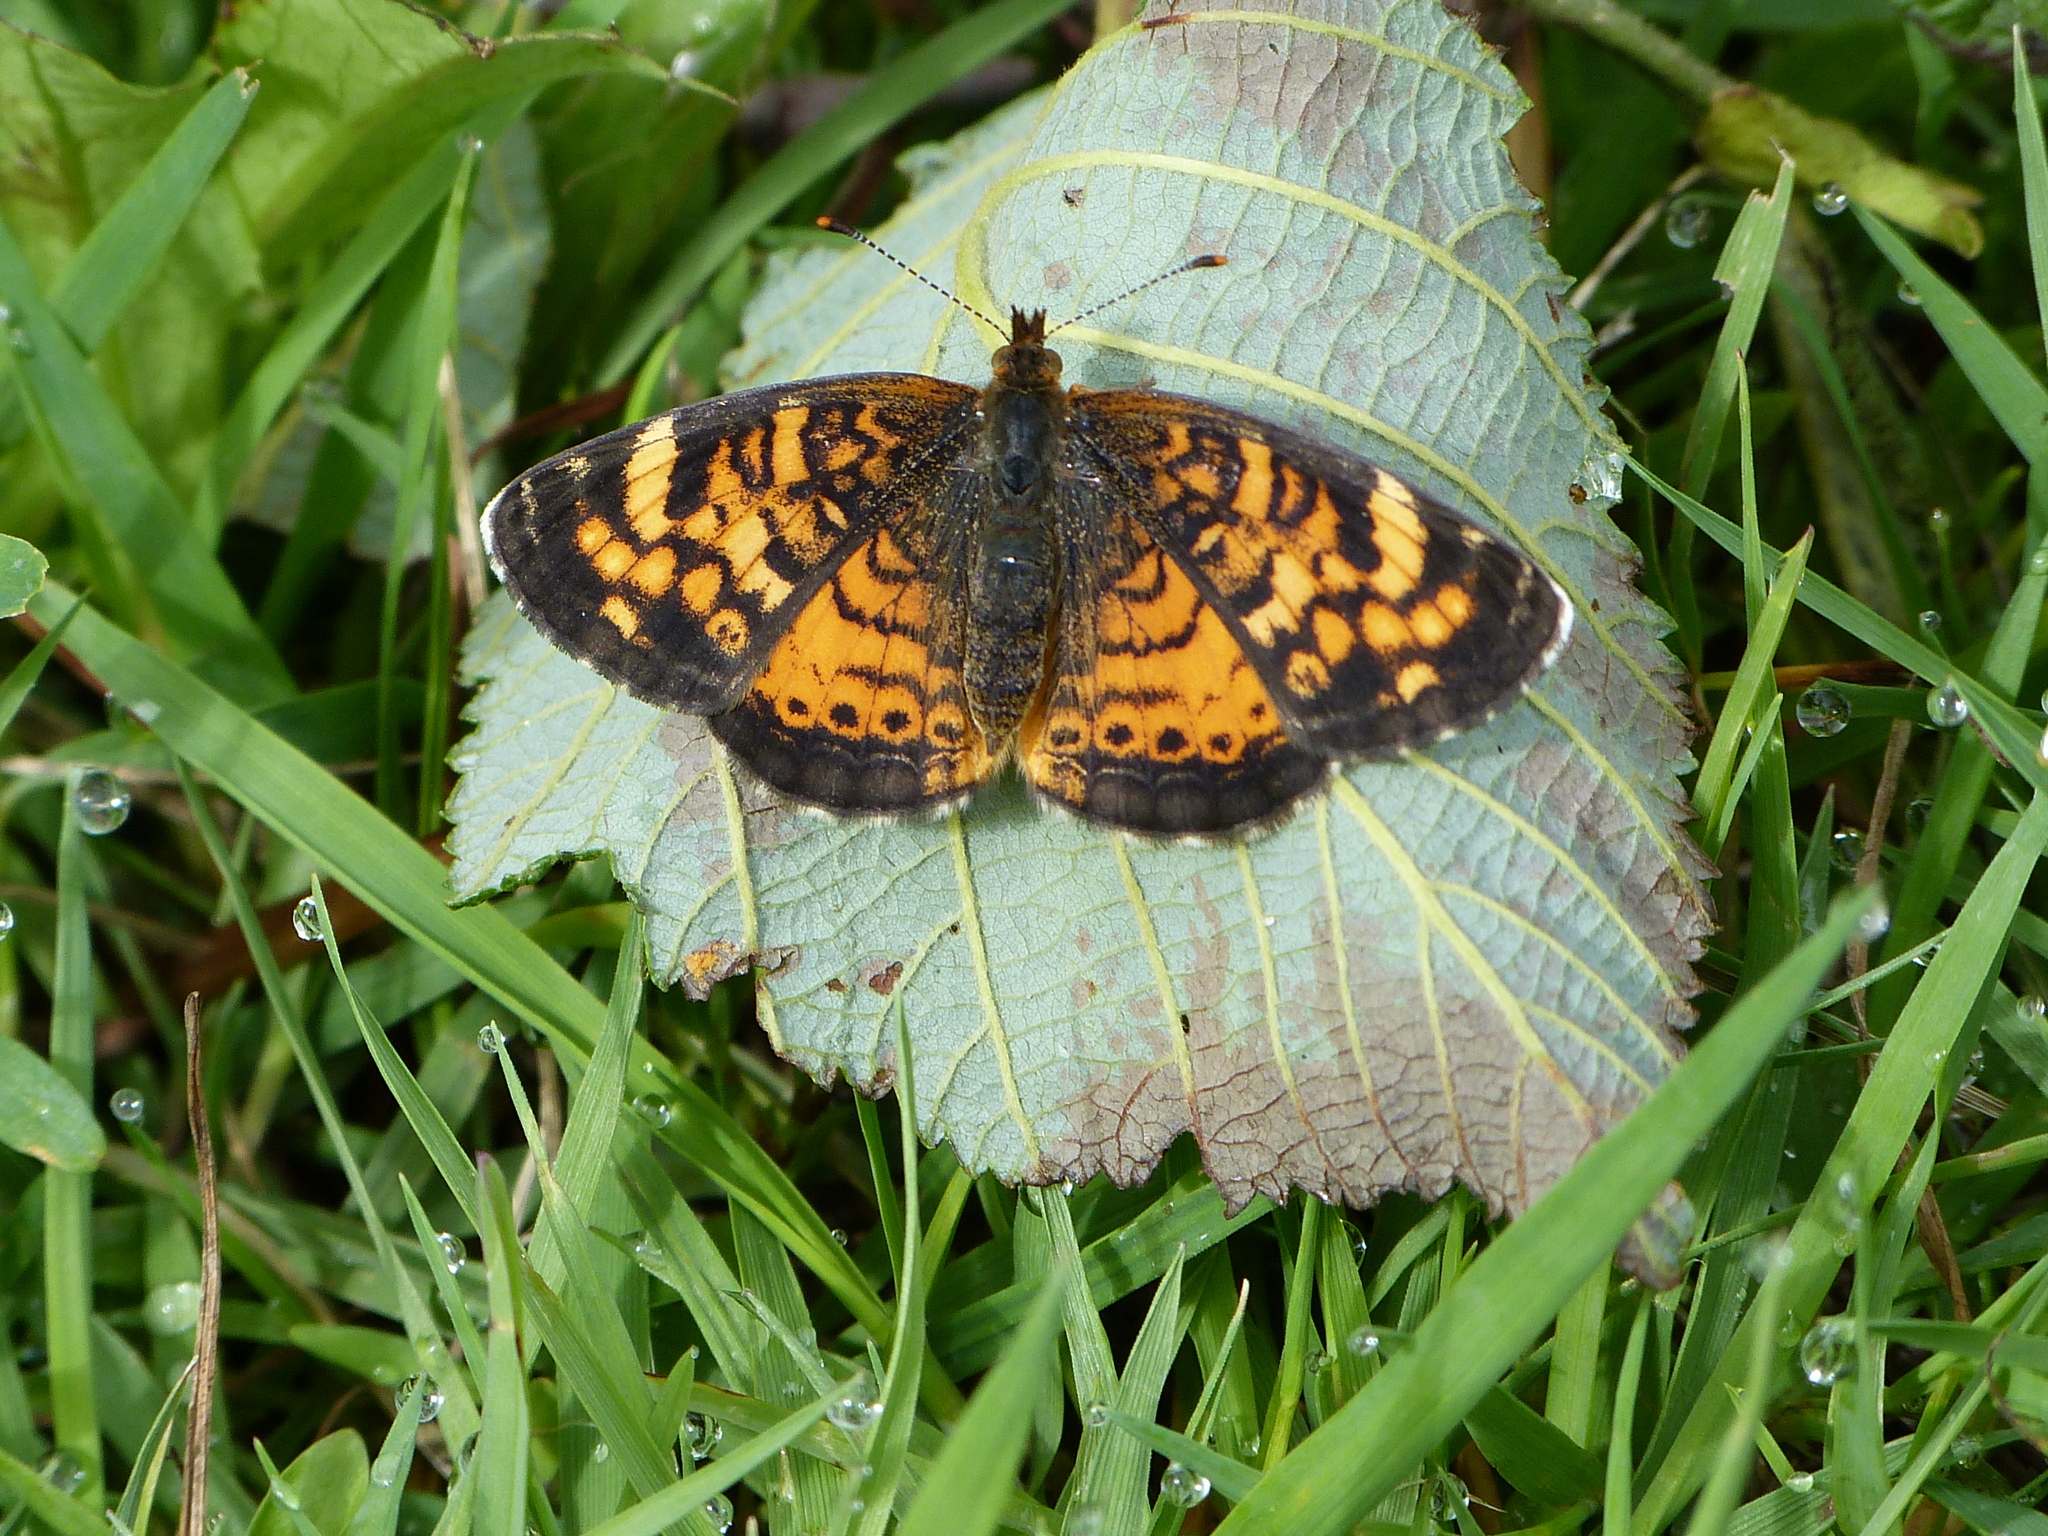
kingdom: Animalia
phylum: Arthropoda
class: Insecta
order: Lepidoptera
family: Nymphalidae
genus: Phyciodes
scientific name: Phyciodes tharos
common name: Pearl crescent
